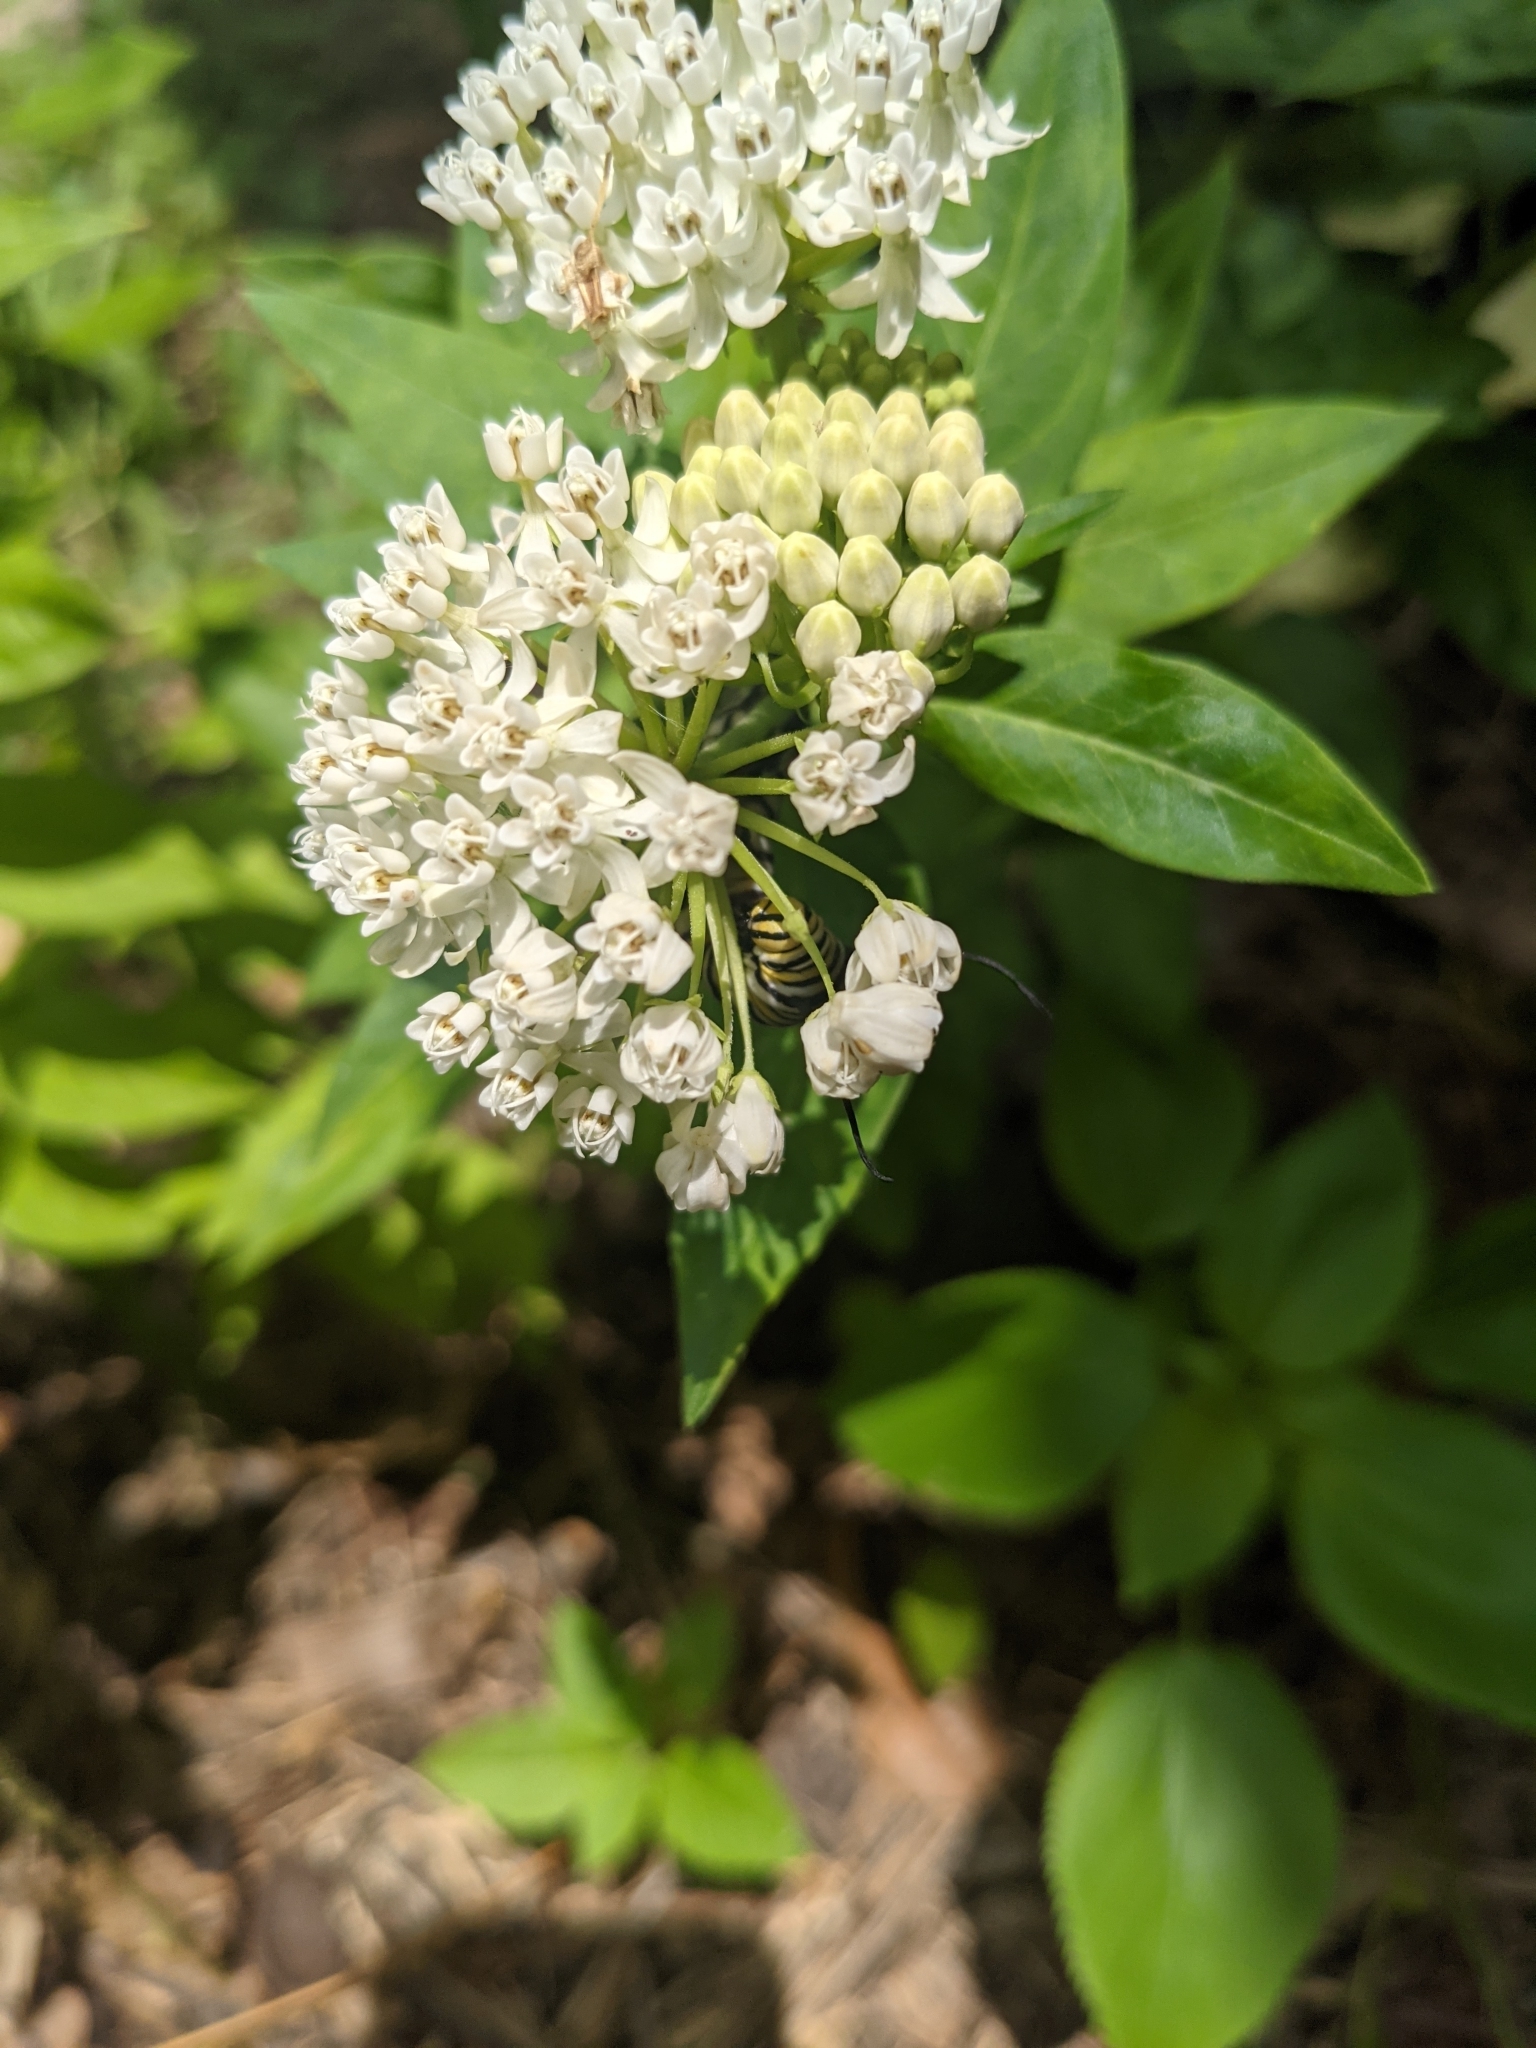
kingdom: Animalia
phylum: Arthropoda
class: Insecta
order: Lepidoptera
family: Nymphalidae
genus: Danaus
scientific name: Danaus plexippus
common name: Monarch
